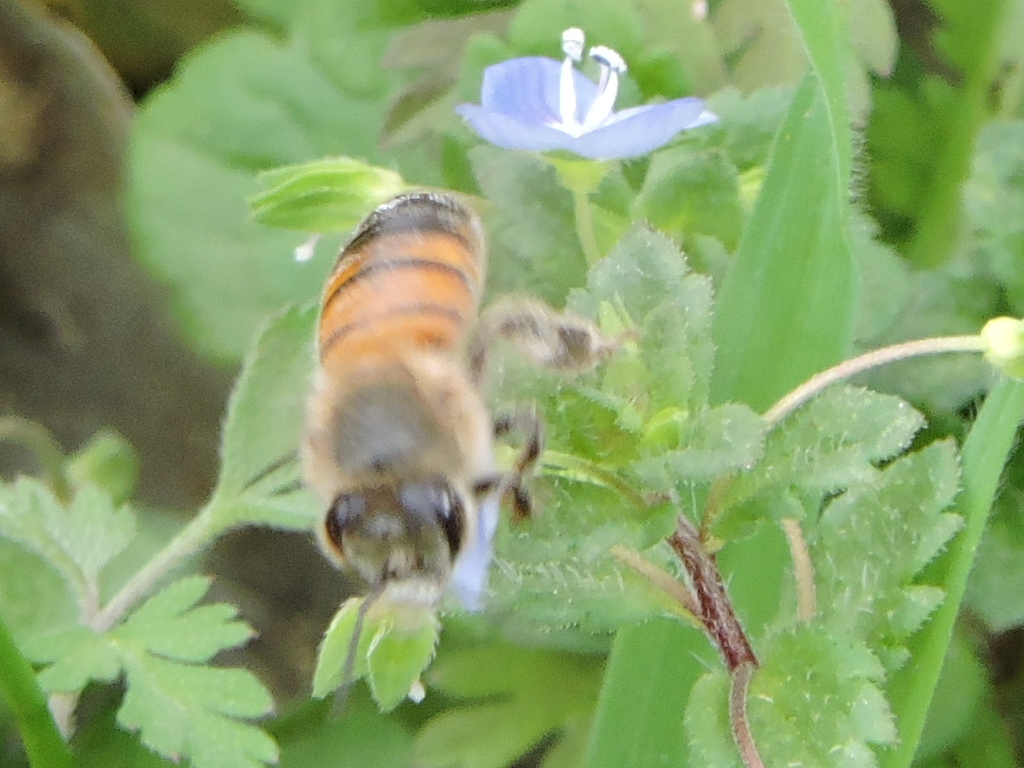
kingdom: Animalia
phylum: Arthropoda
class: Insecta
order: Hymenoptera
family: Apidae
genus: Apis
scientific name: Apis mellifera
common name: Honey bee
